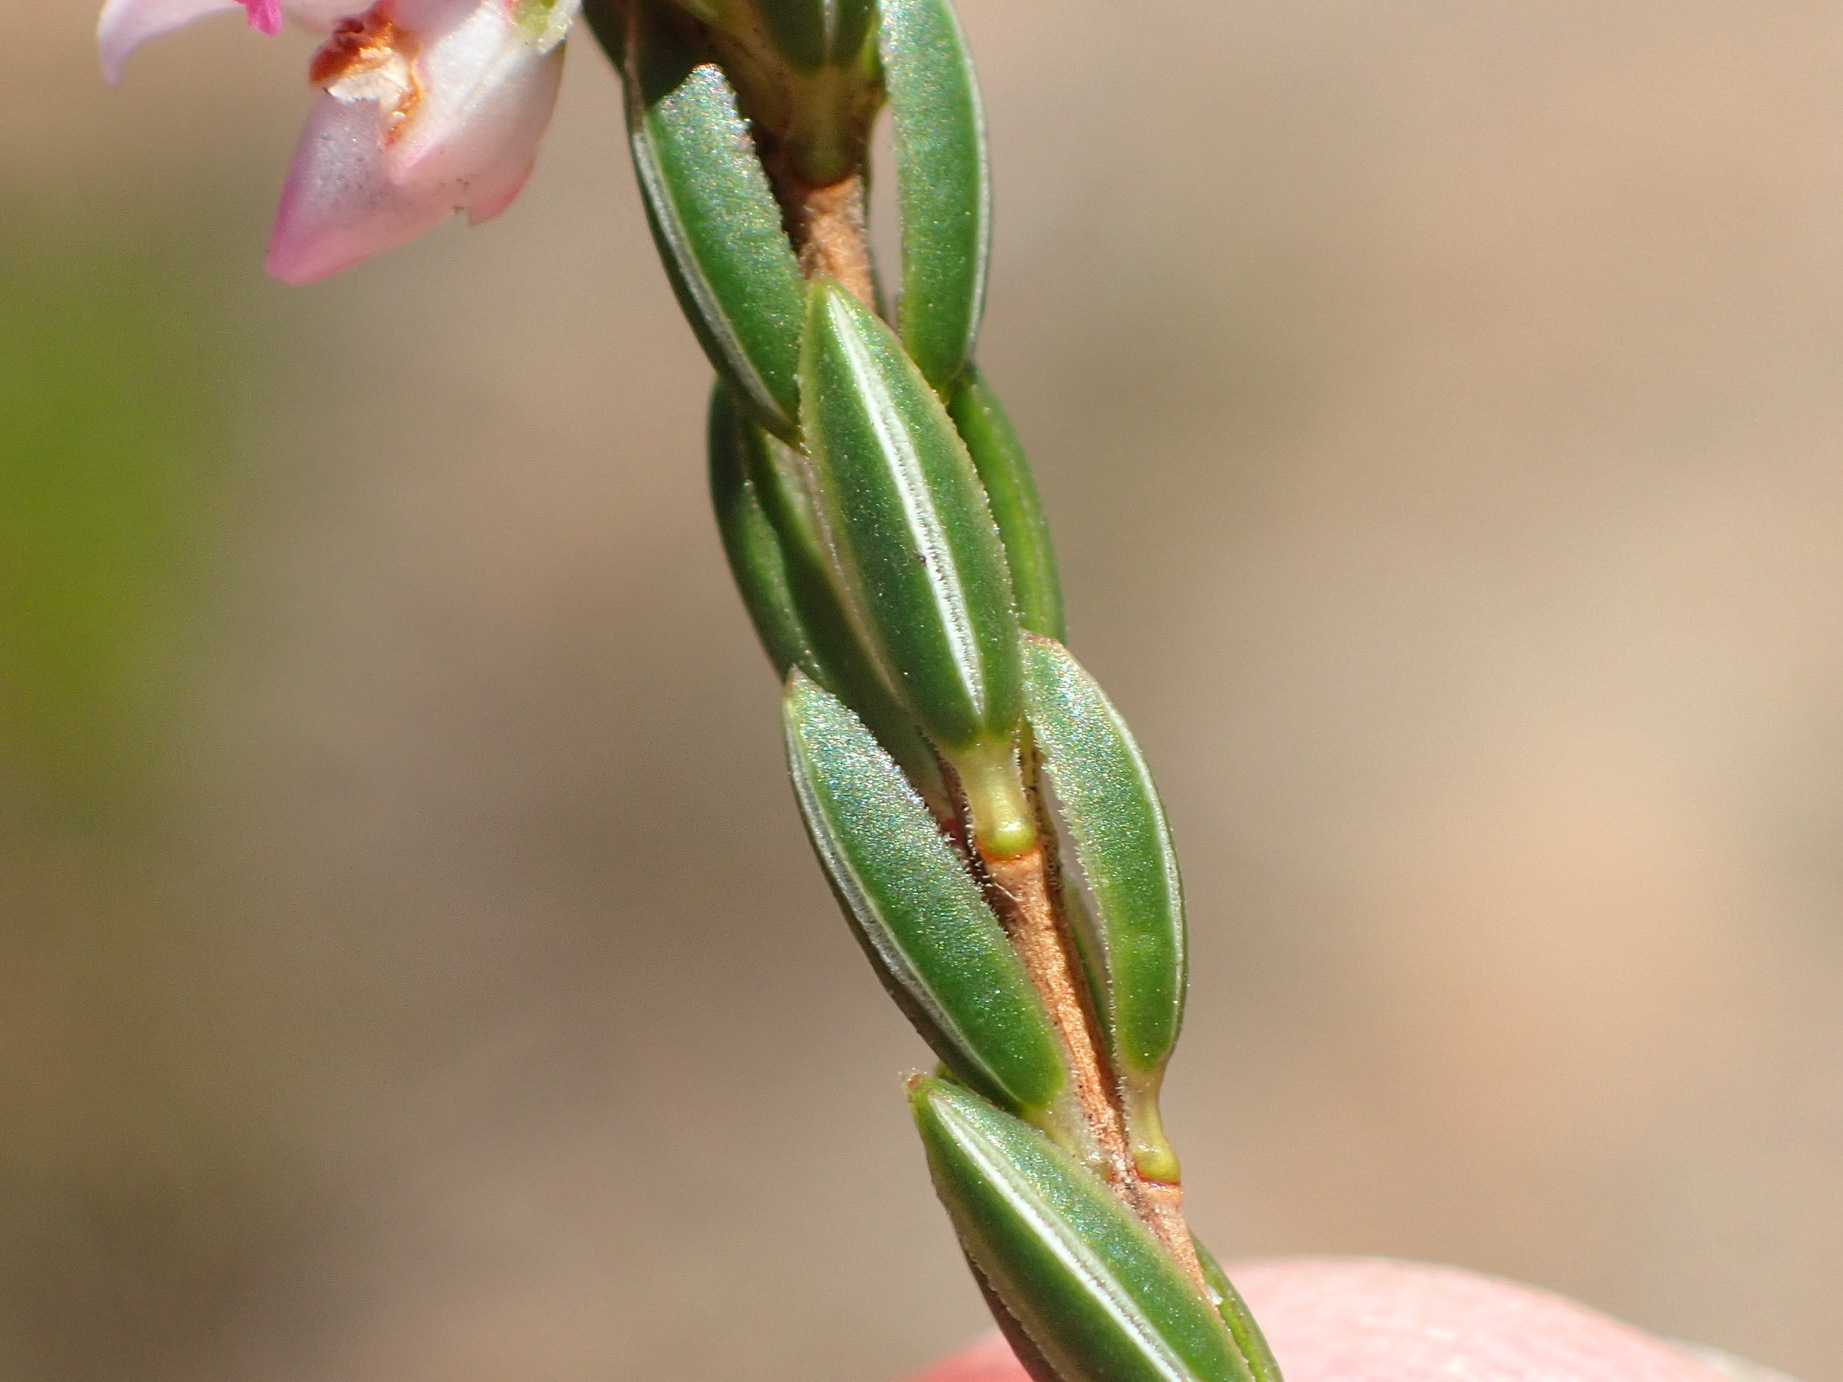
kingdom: Plantae
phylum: Tracheophyta
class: Magnoliopsida
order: Ericales
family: Ericaceae
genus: Erica
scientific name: Erica articularis
